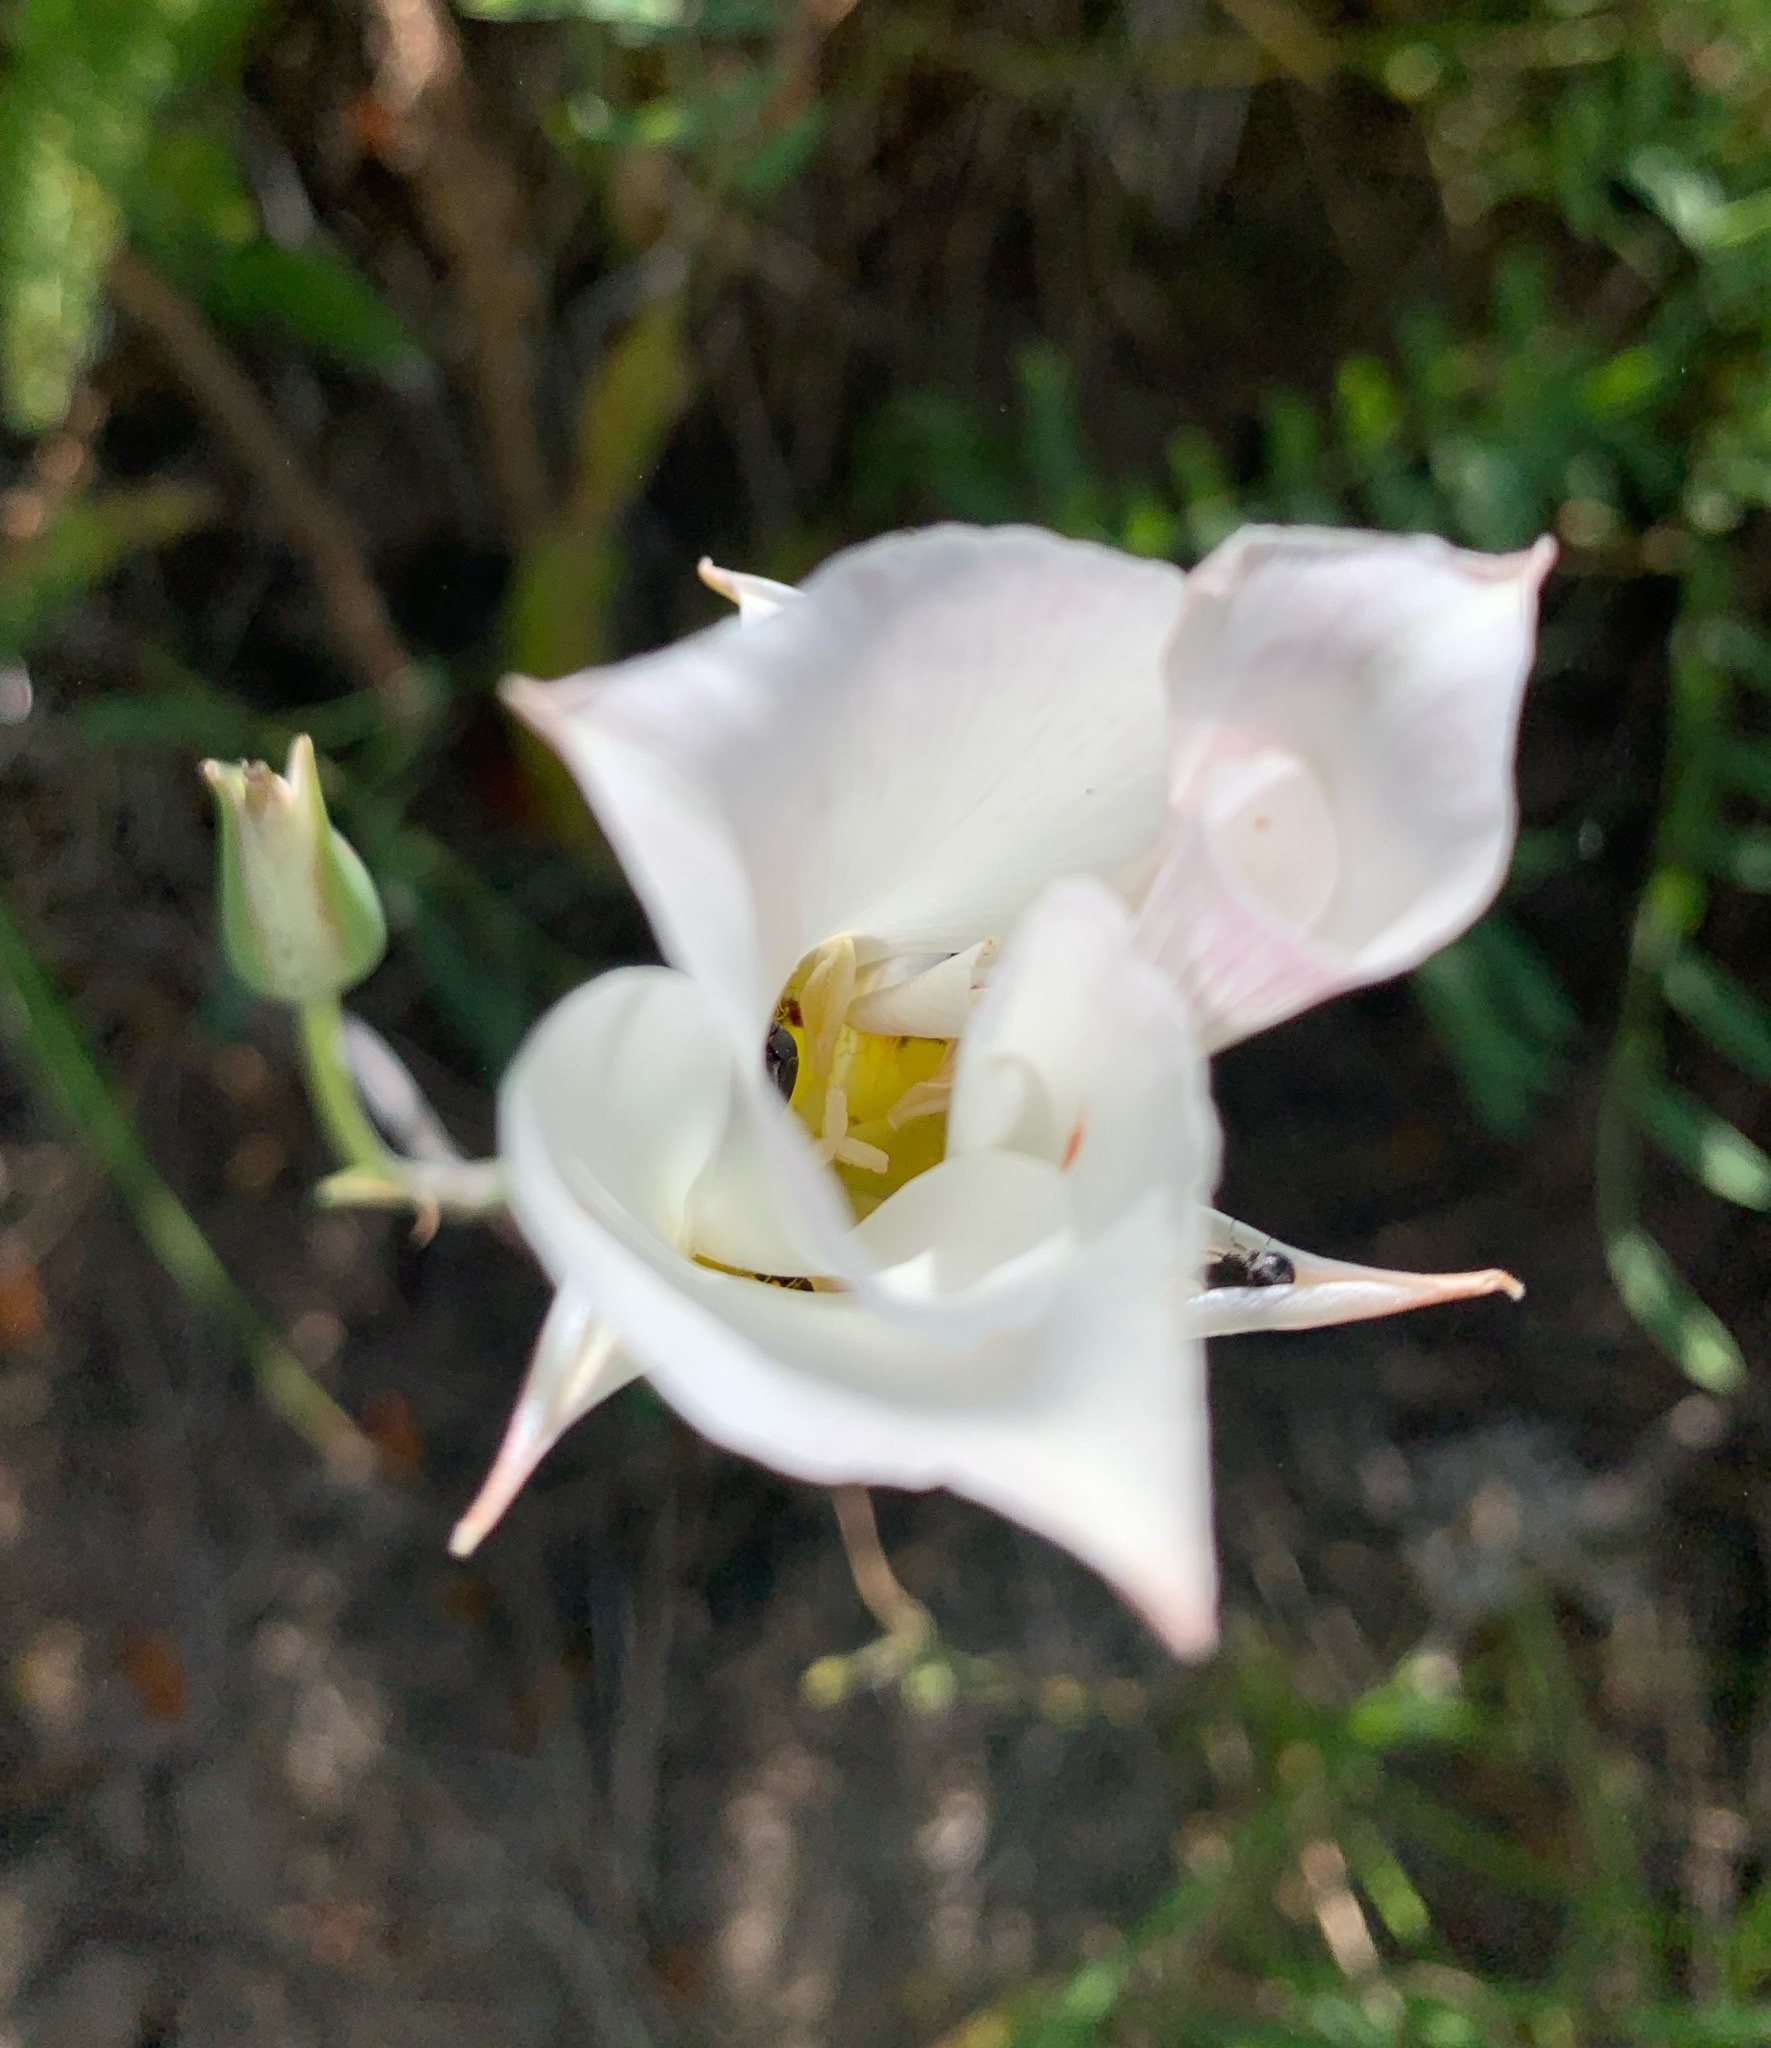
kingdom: Plantae
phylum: Tracheophyta
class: Liliopsida
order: Liliales
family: Liliaceae
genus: Calochortus
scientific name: Calochortus nuttallii
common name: Sego-lily
